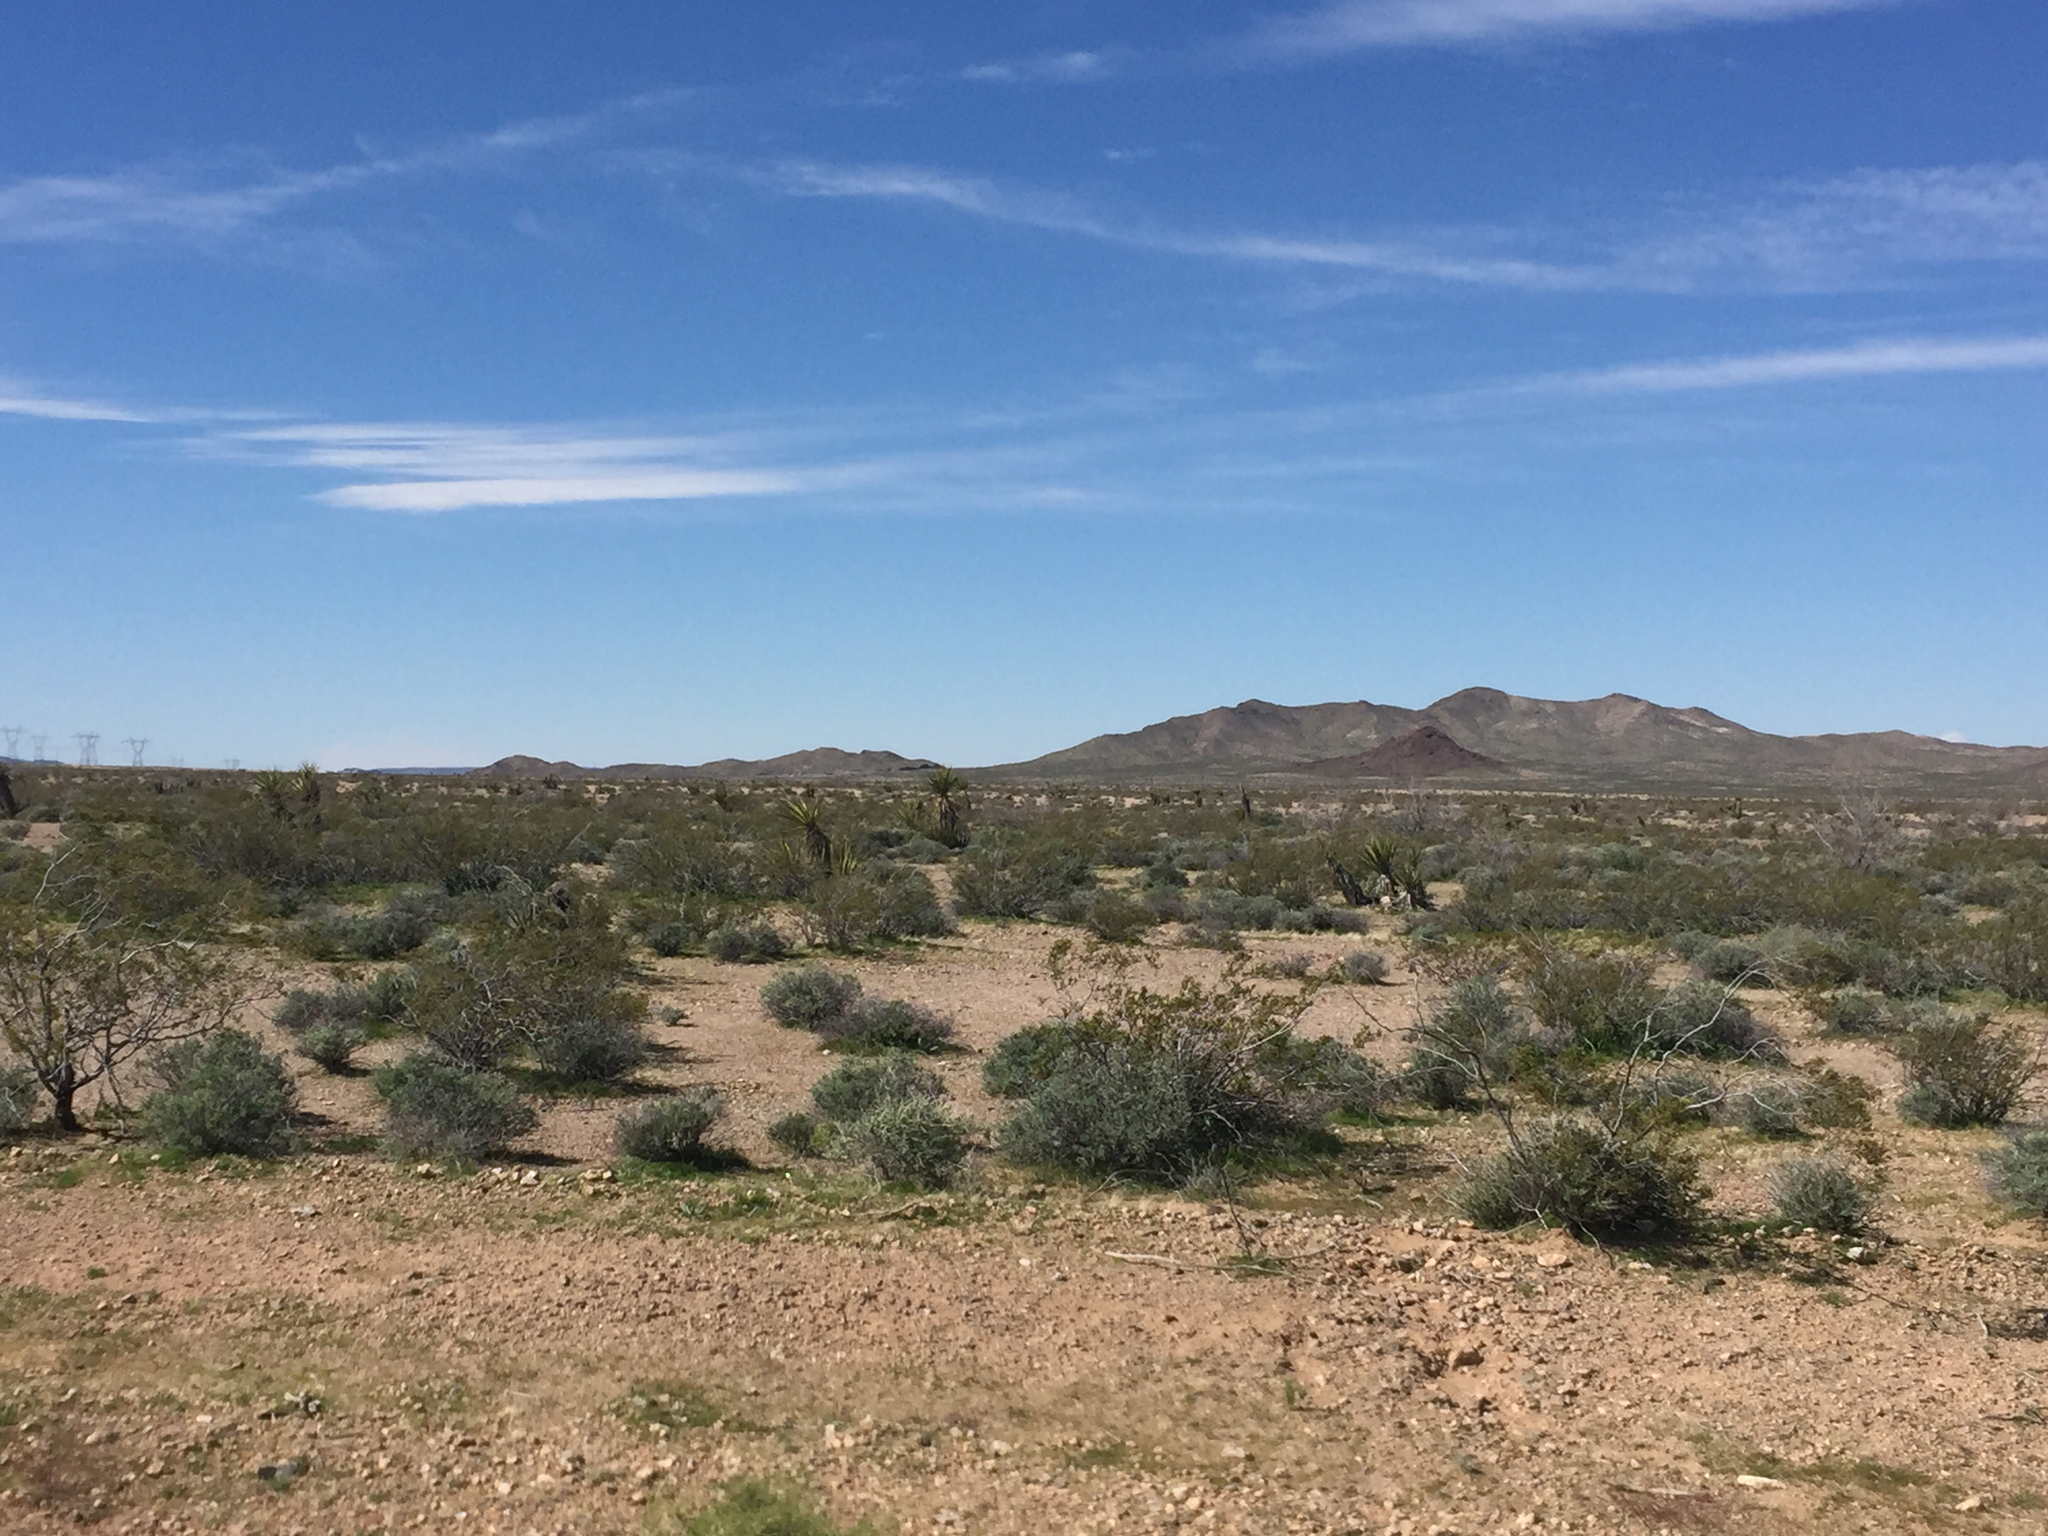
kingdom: Plantae
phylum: Tracheophyta
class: Magnoliopsida
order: Zygophyllales
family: Zygophyllaceae
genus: Larrea
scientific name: Larrea tridentata
